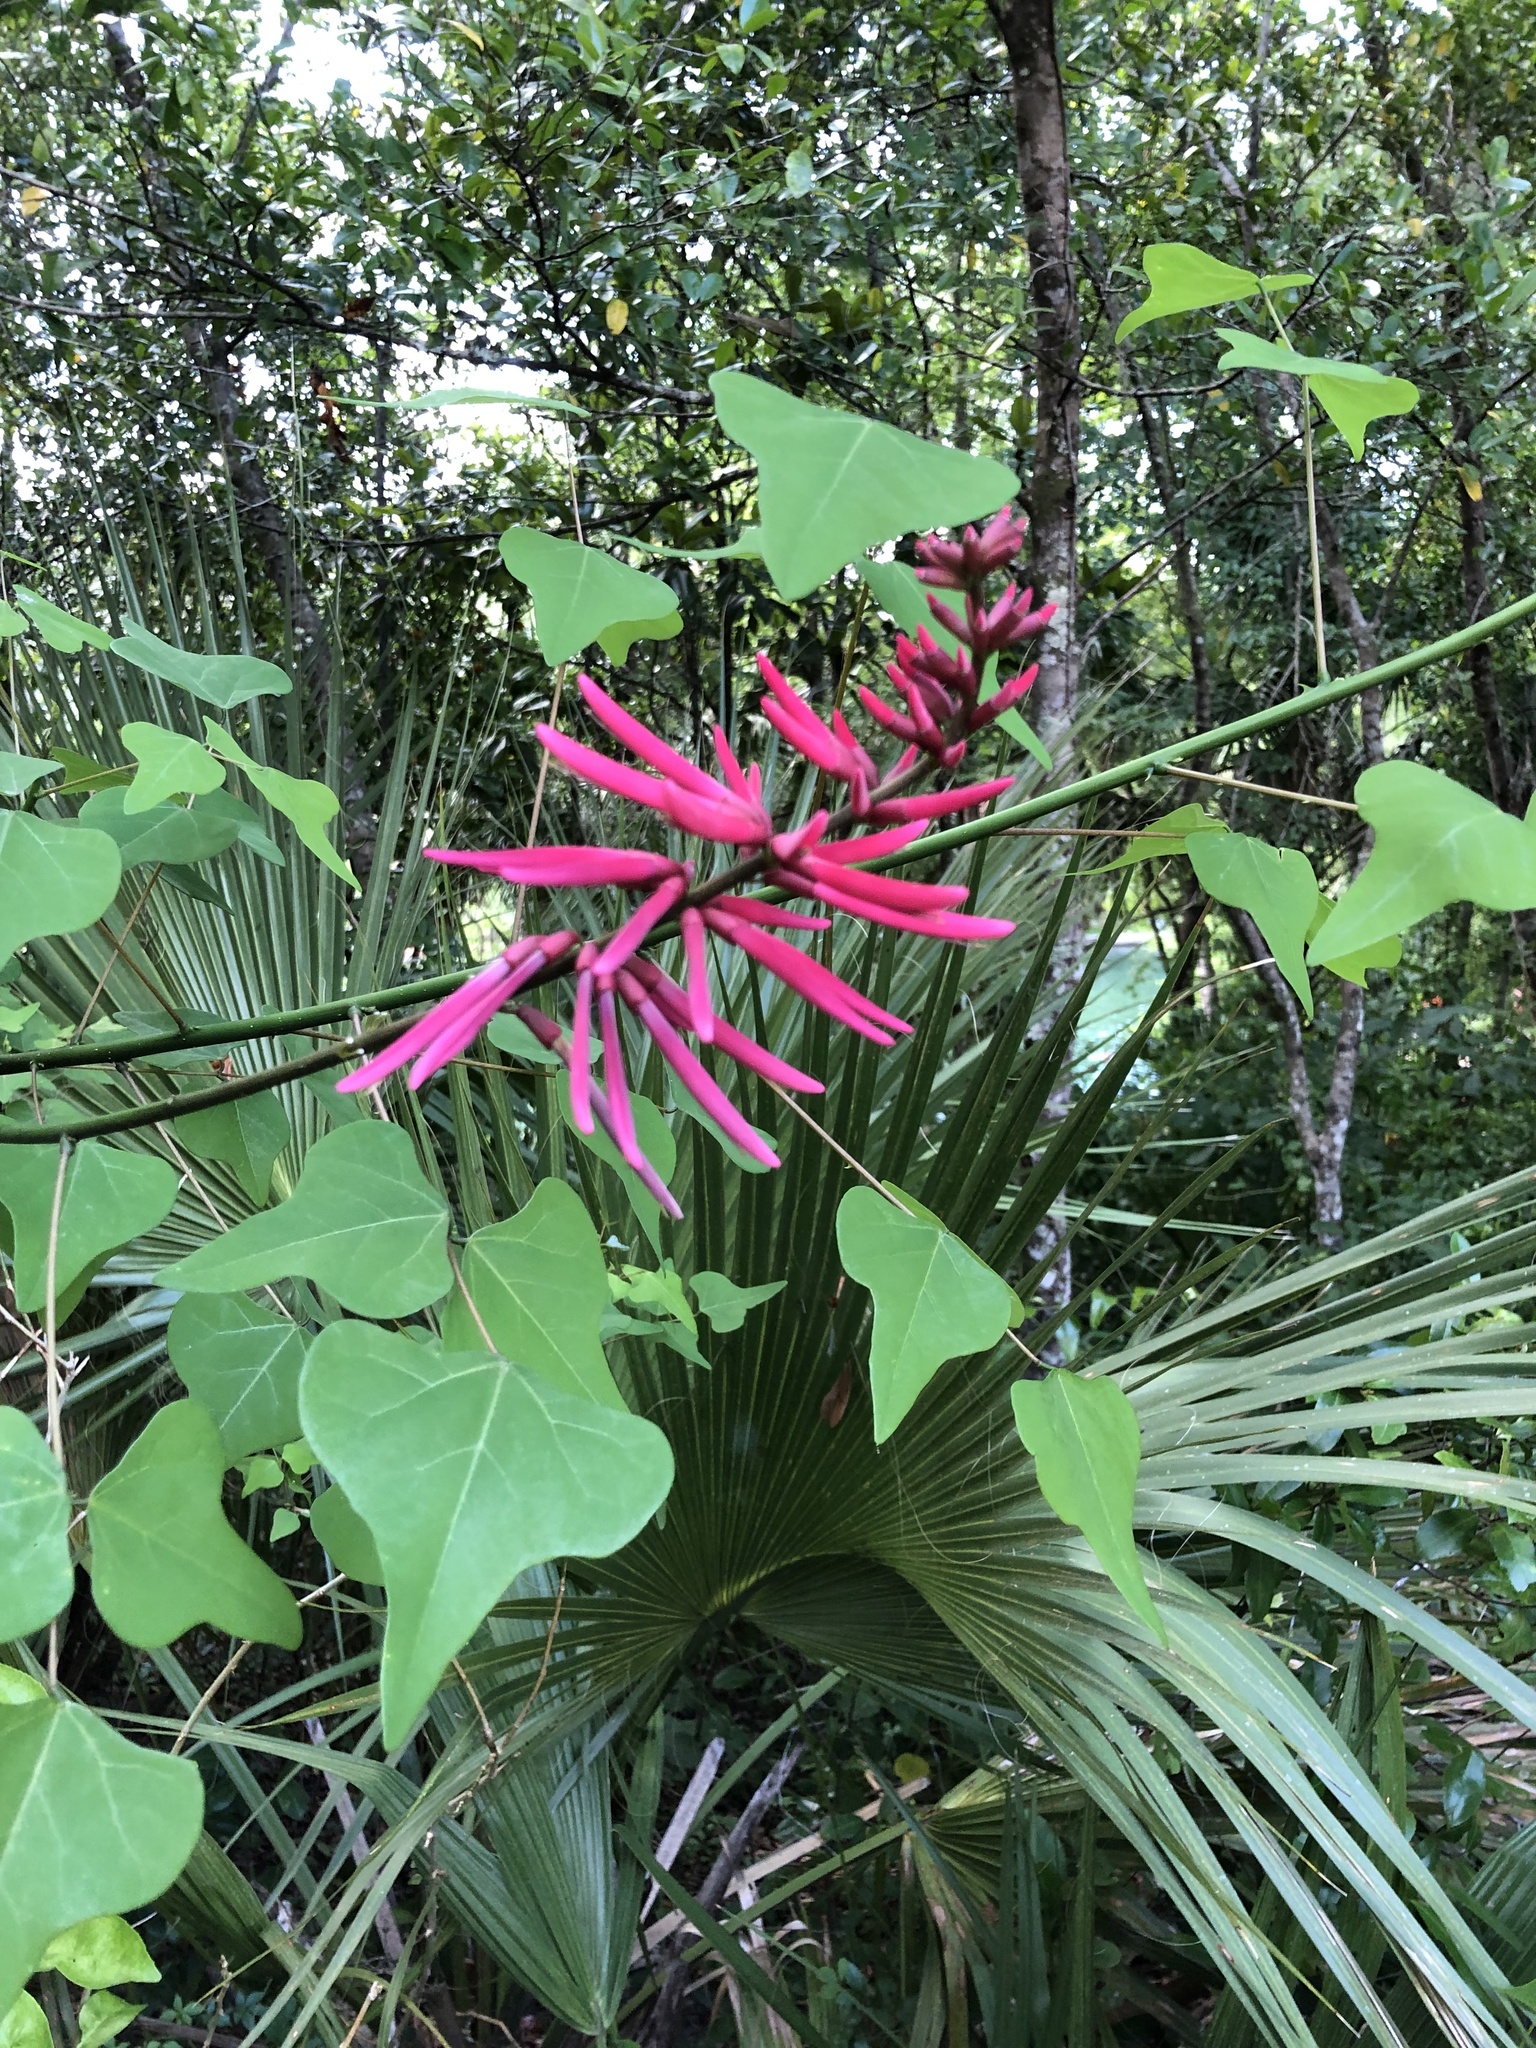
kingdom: Plantae
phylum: Tracheophyta
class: Magnoliopsida
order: Fabales
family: Fabaceae
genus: Erythrina
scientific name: Erythrina herbacea
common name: Coral-bean
